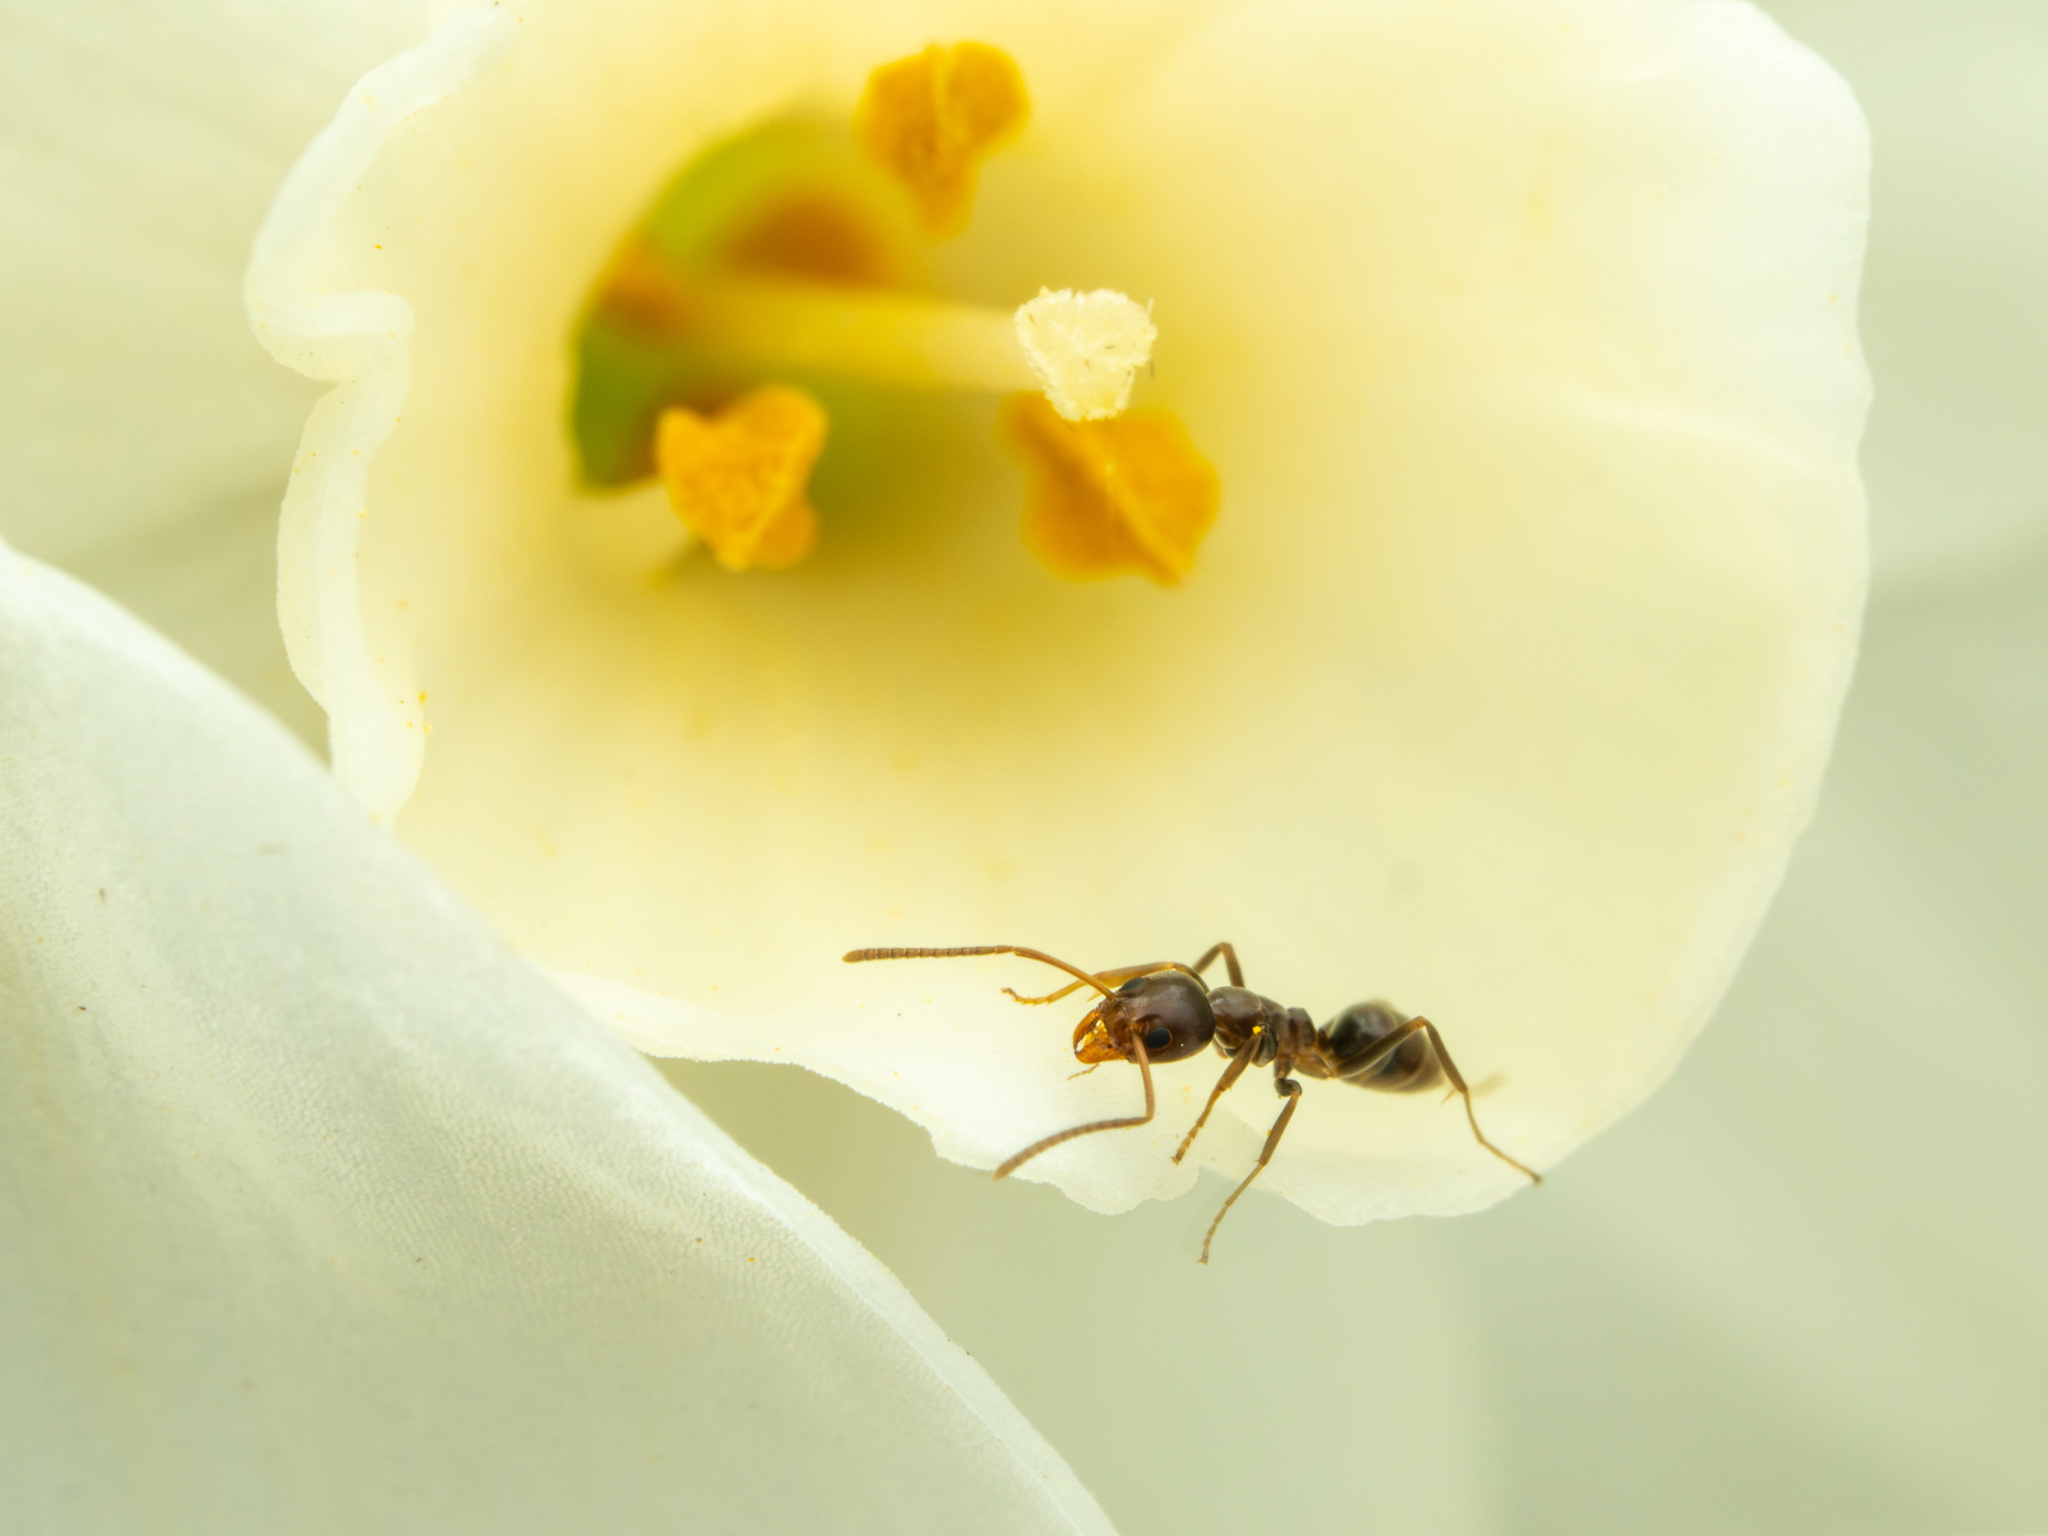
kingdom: Animalia
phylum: Arthropoda
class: Insecta
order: Hymenoptera
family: Formicidae
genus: Linepithema
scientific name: Linepithema humile
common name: Argentine ant
